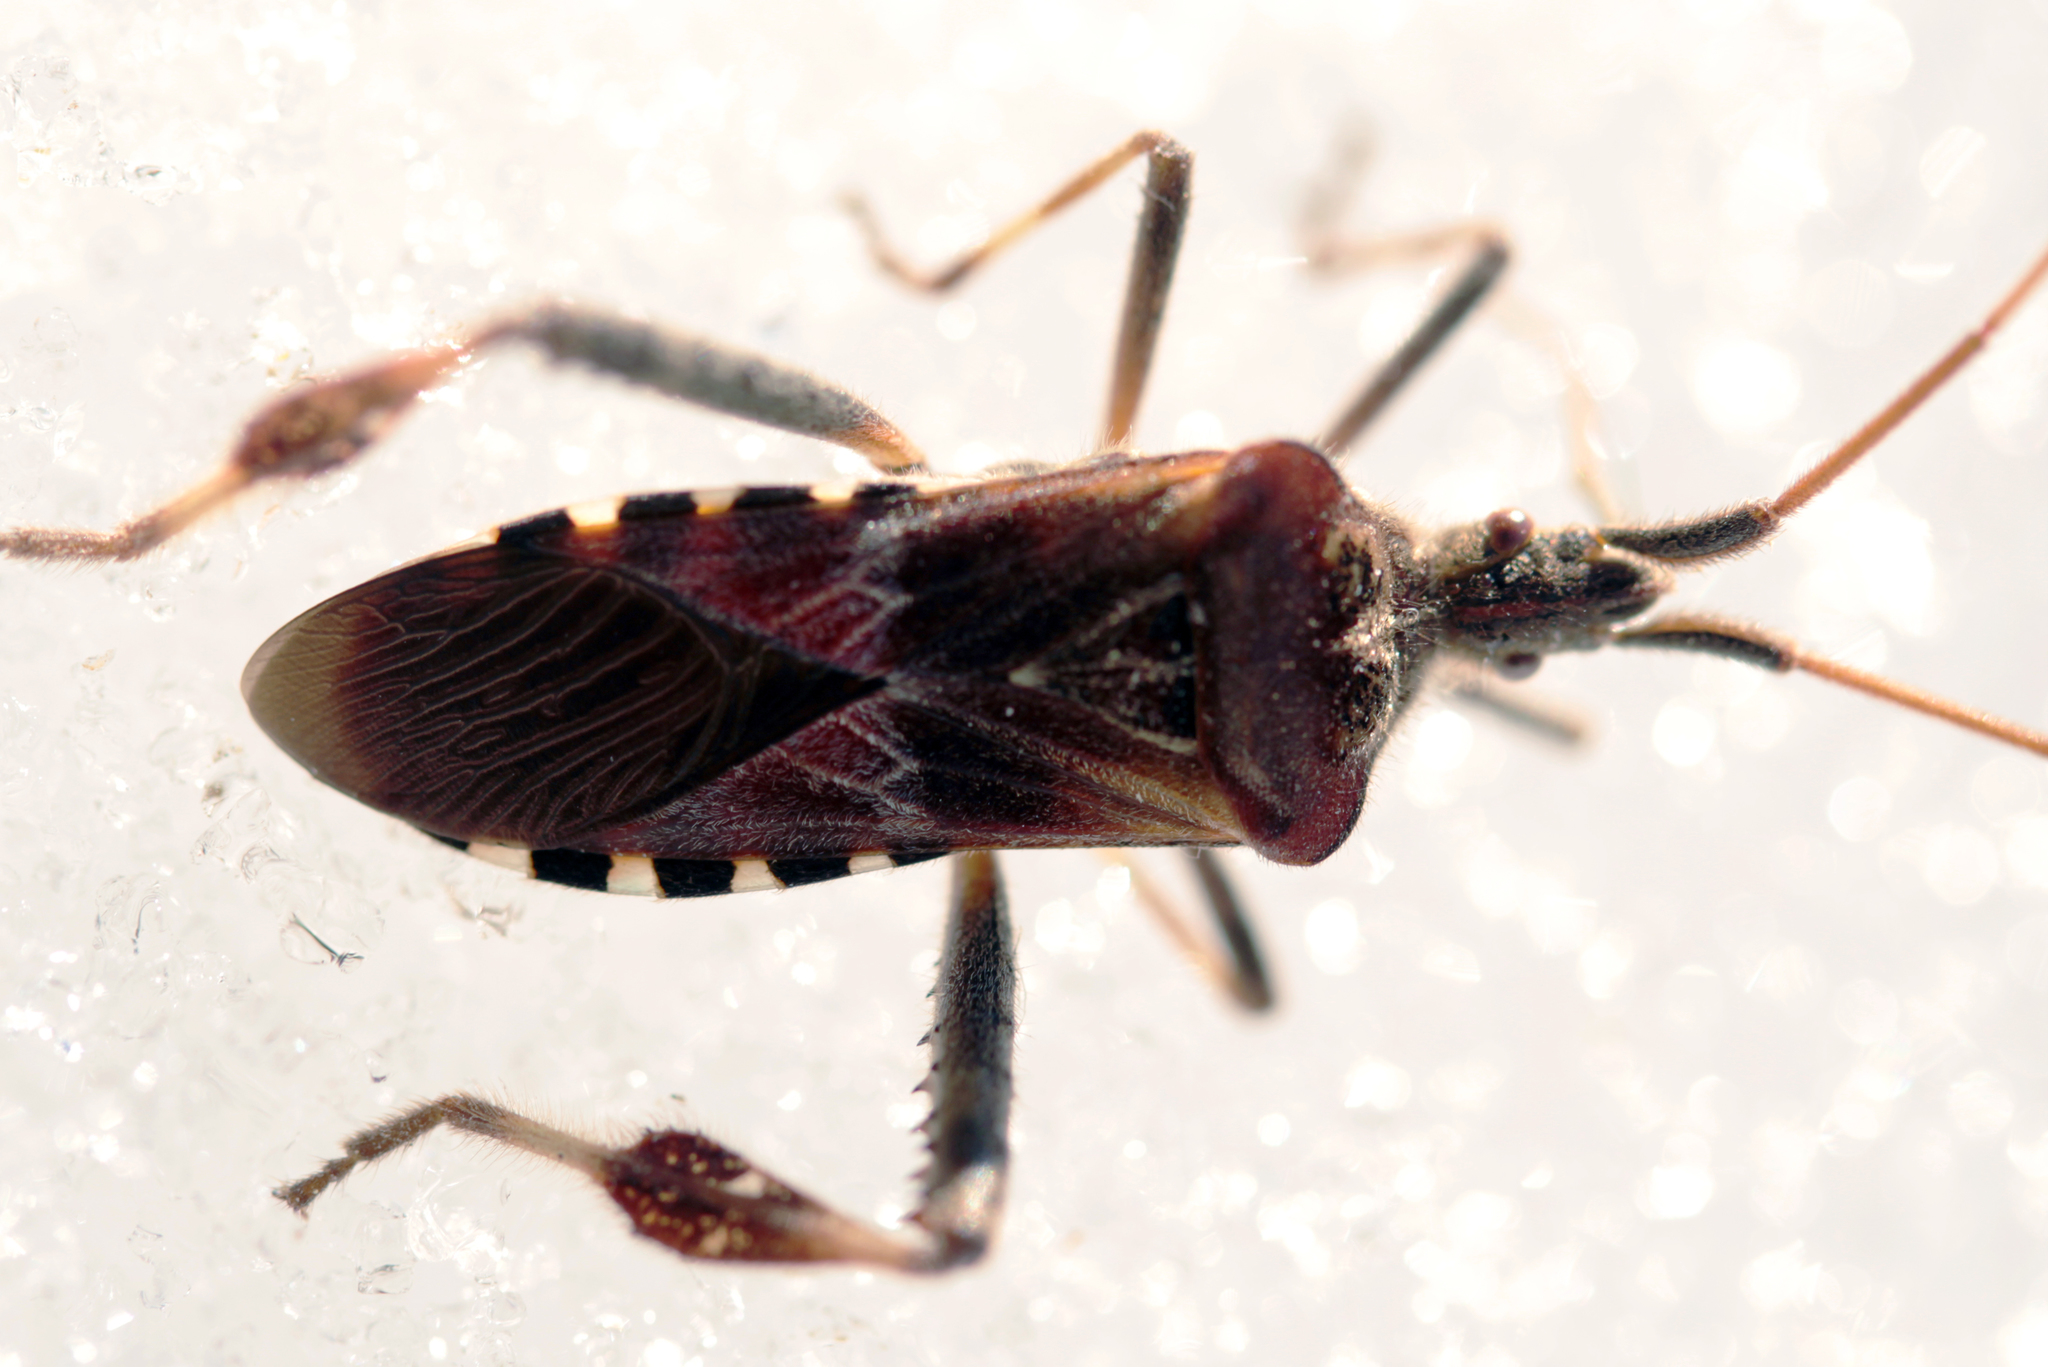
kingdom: Animalia
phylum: Arthropoda
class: Insecta
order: Hemiptera
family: Coreidae
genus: Leptoglossus
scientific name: Leptoglossus occidentalis
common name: Western conifer-seed bug
